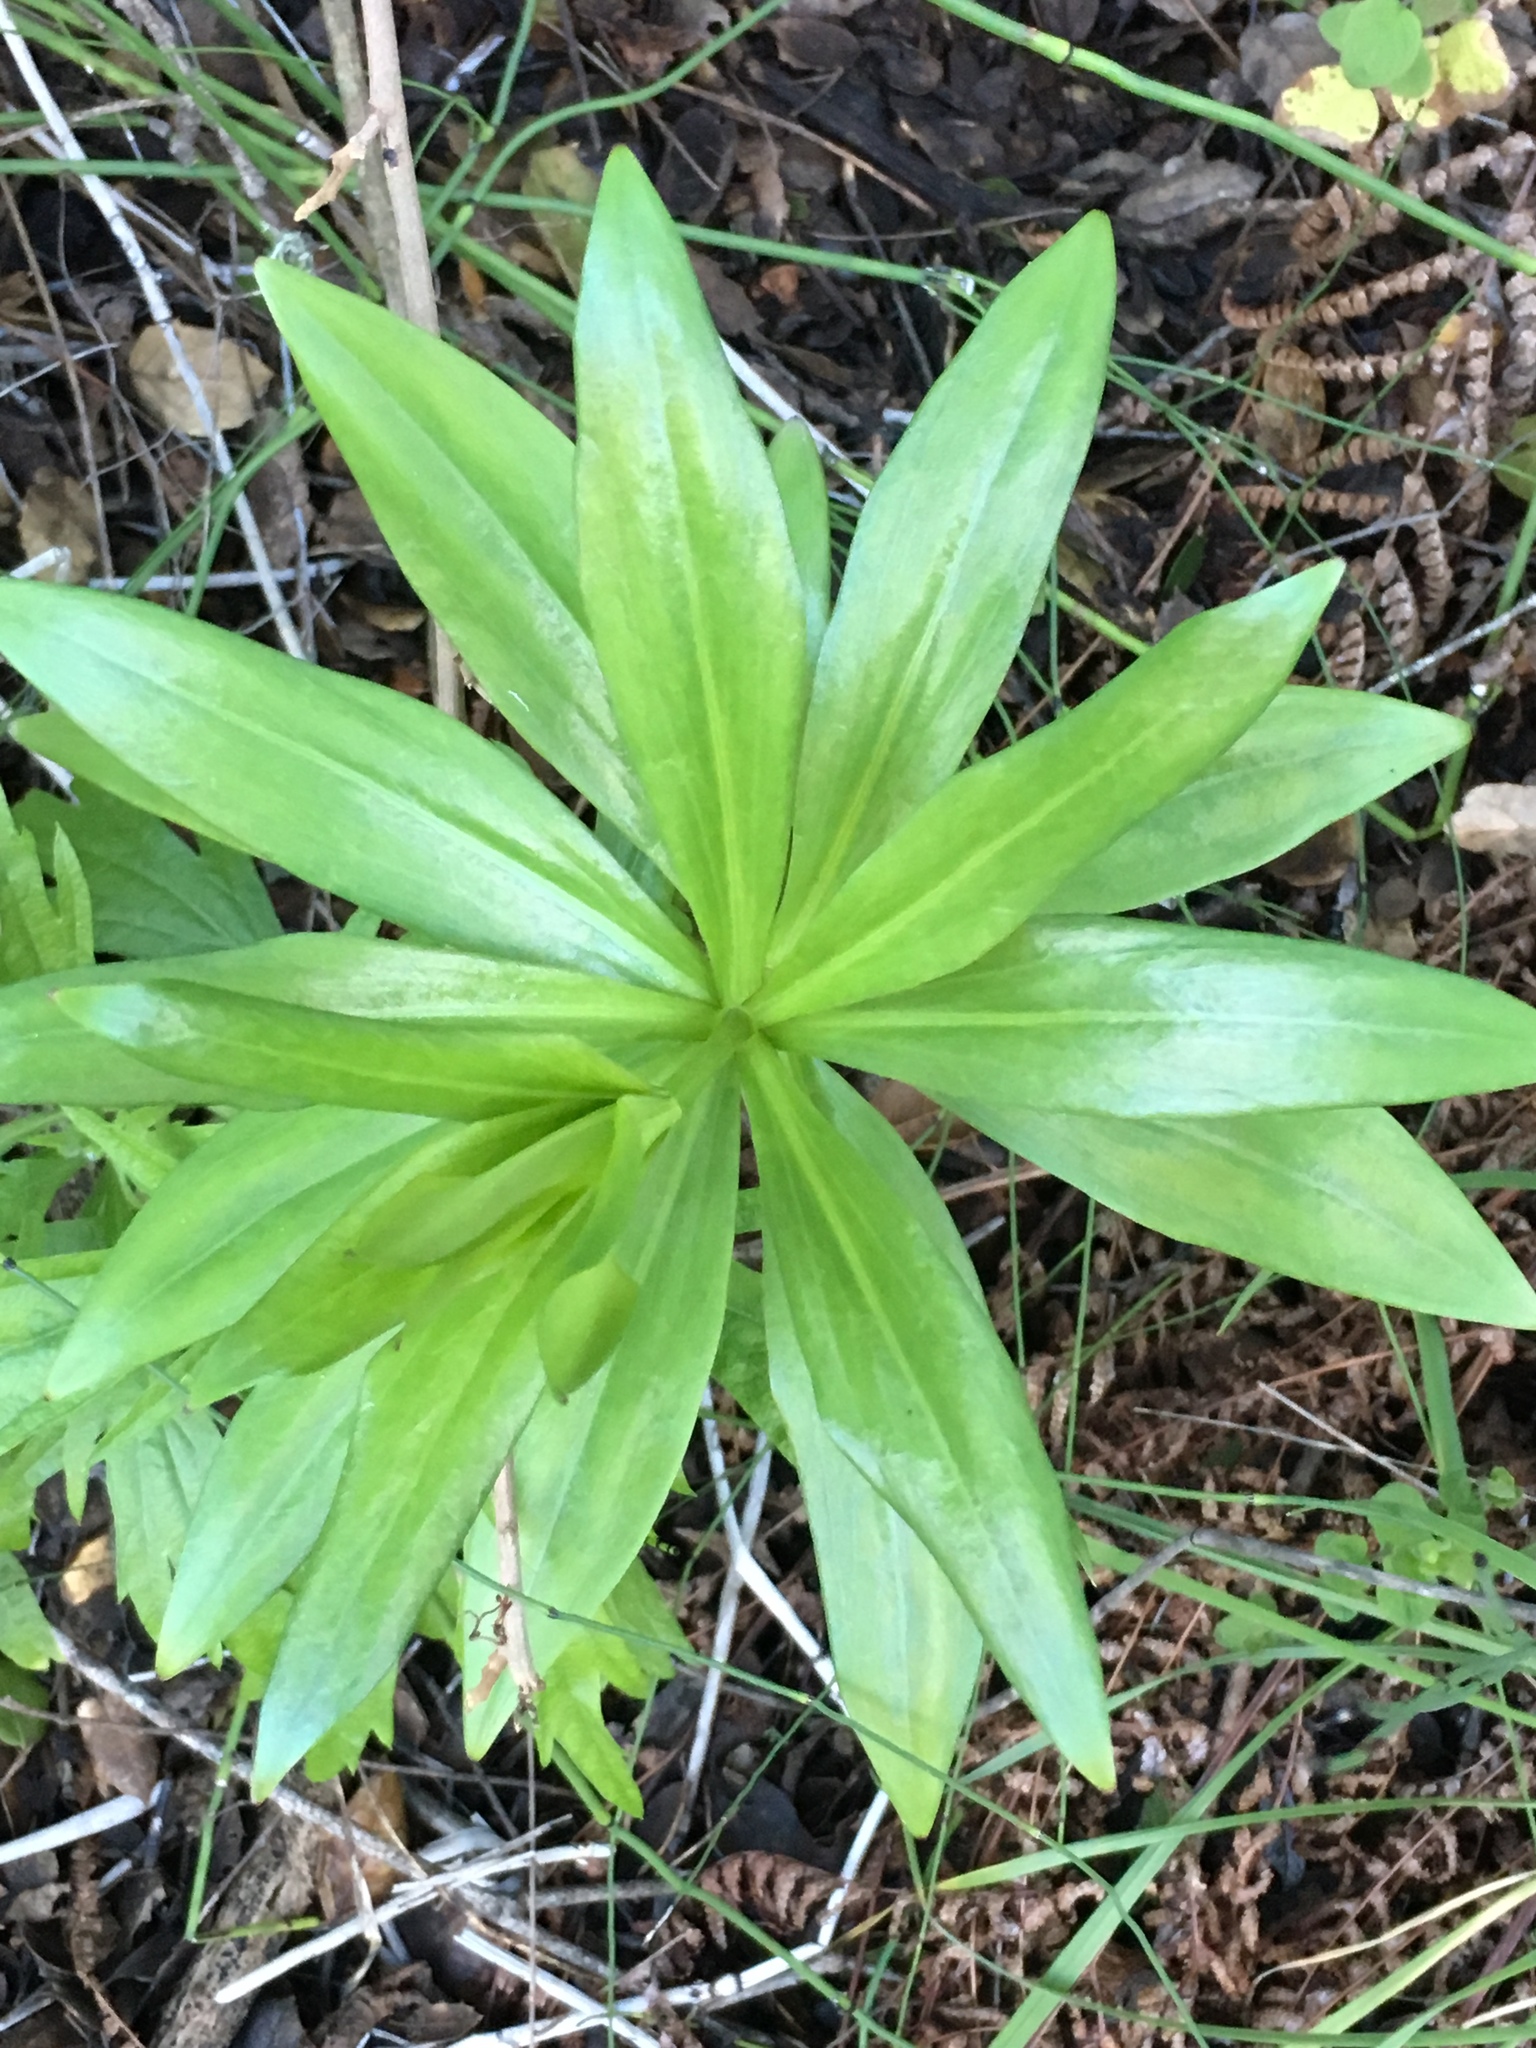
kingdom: Plantae
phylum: Tracheophyta
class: Liliopsida
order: Liliales
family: Liliaceae
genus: Lilium
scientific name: Lilium humboldtii
